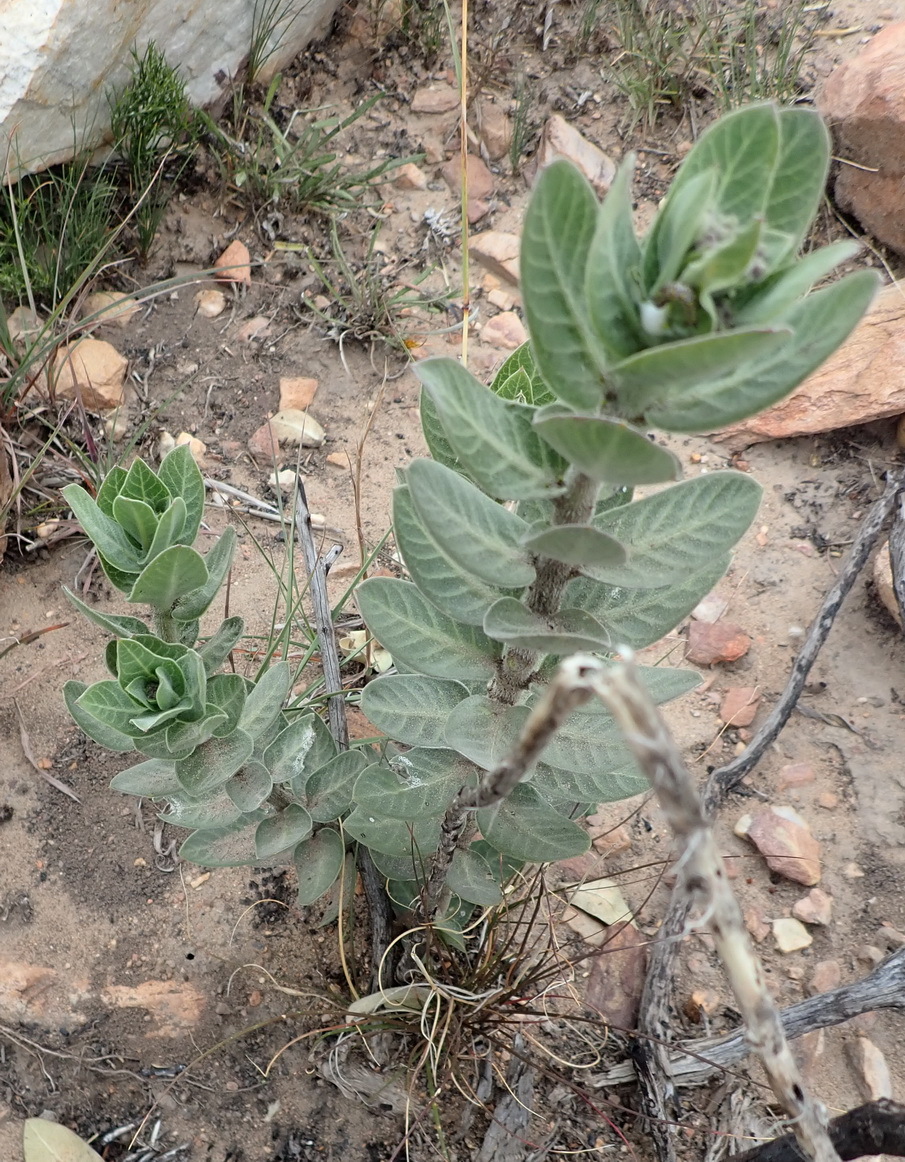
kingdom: Plantae
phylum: Tracheophyta
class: Magnoliopsida
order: Gentianales
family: Apocynaceae
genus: Gomphocarpus
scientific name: Gomphocarpus cancellatus
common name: Wild cotton
